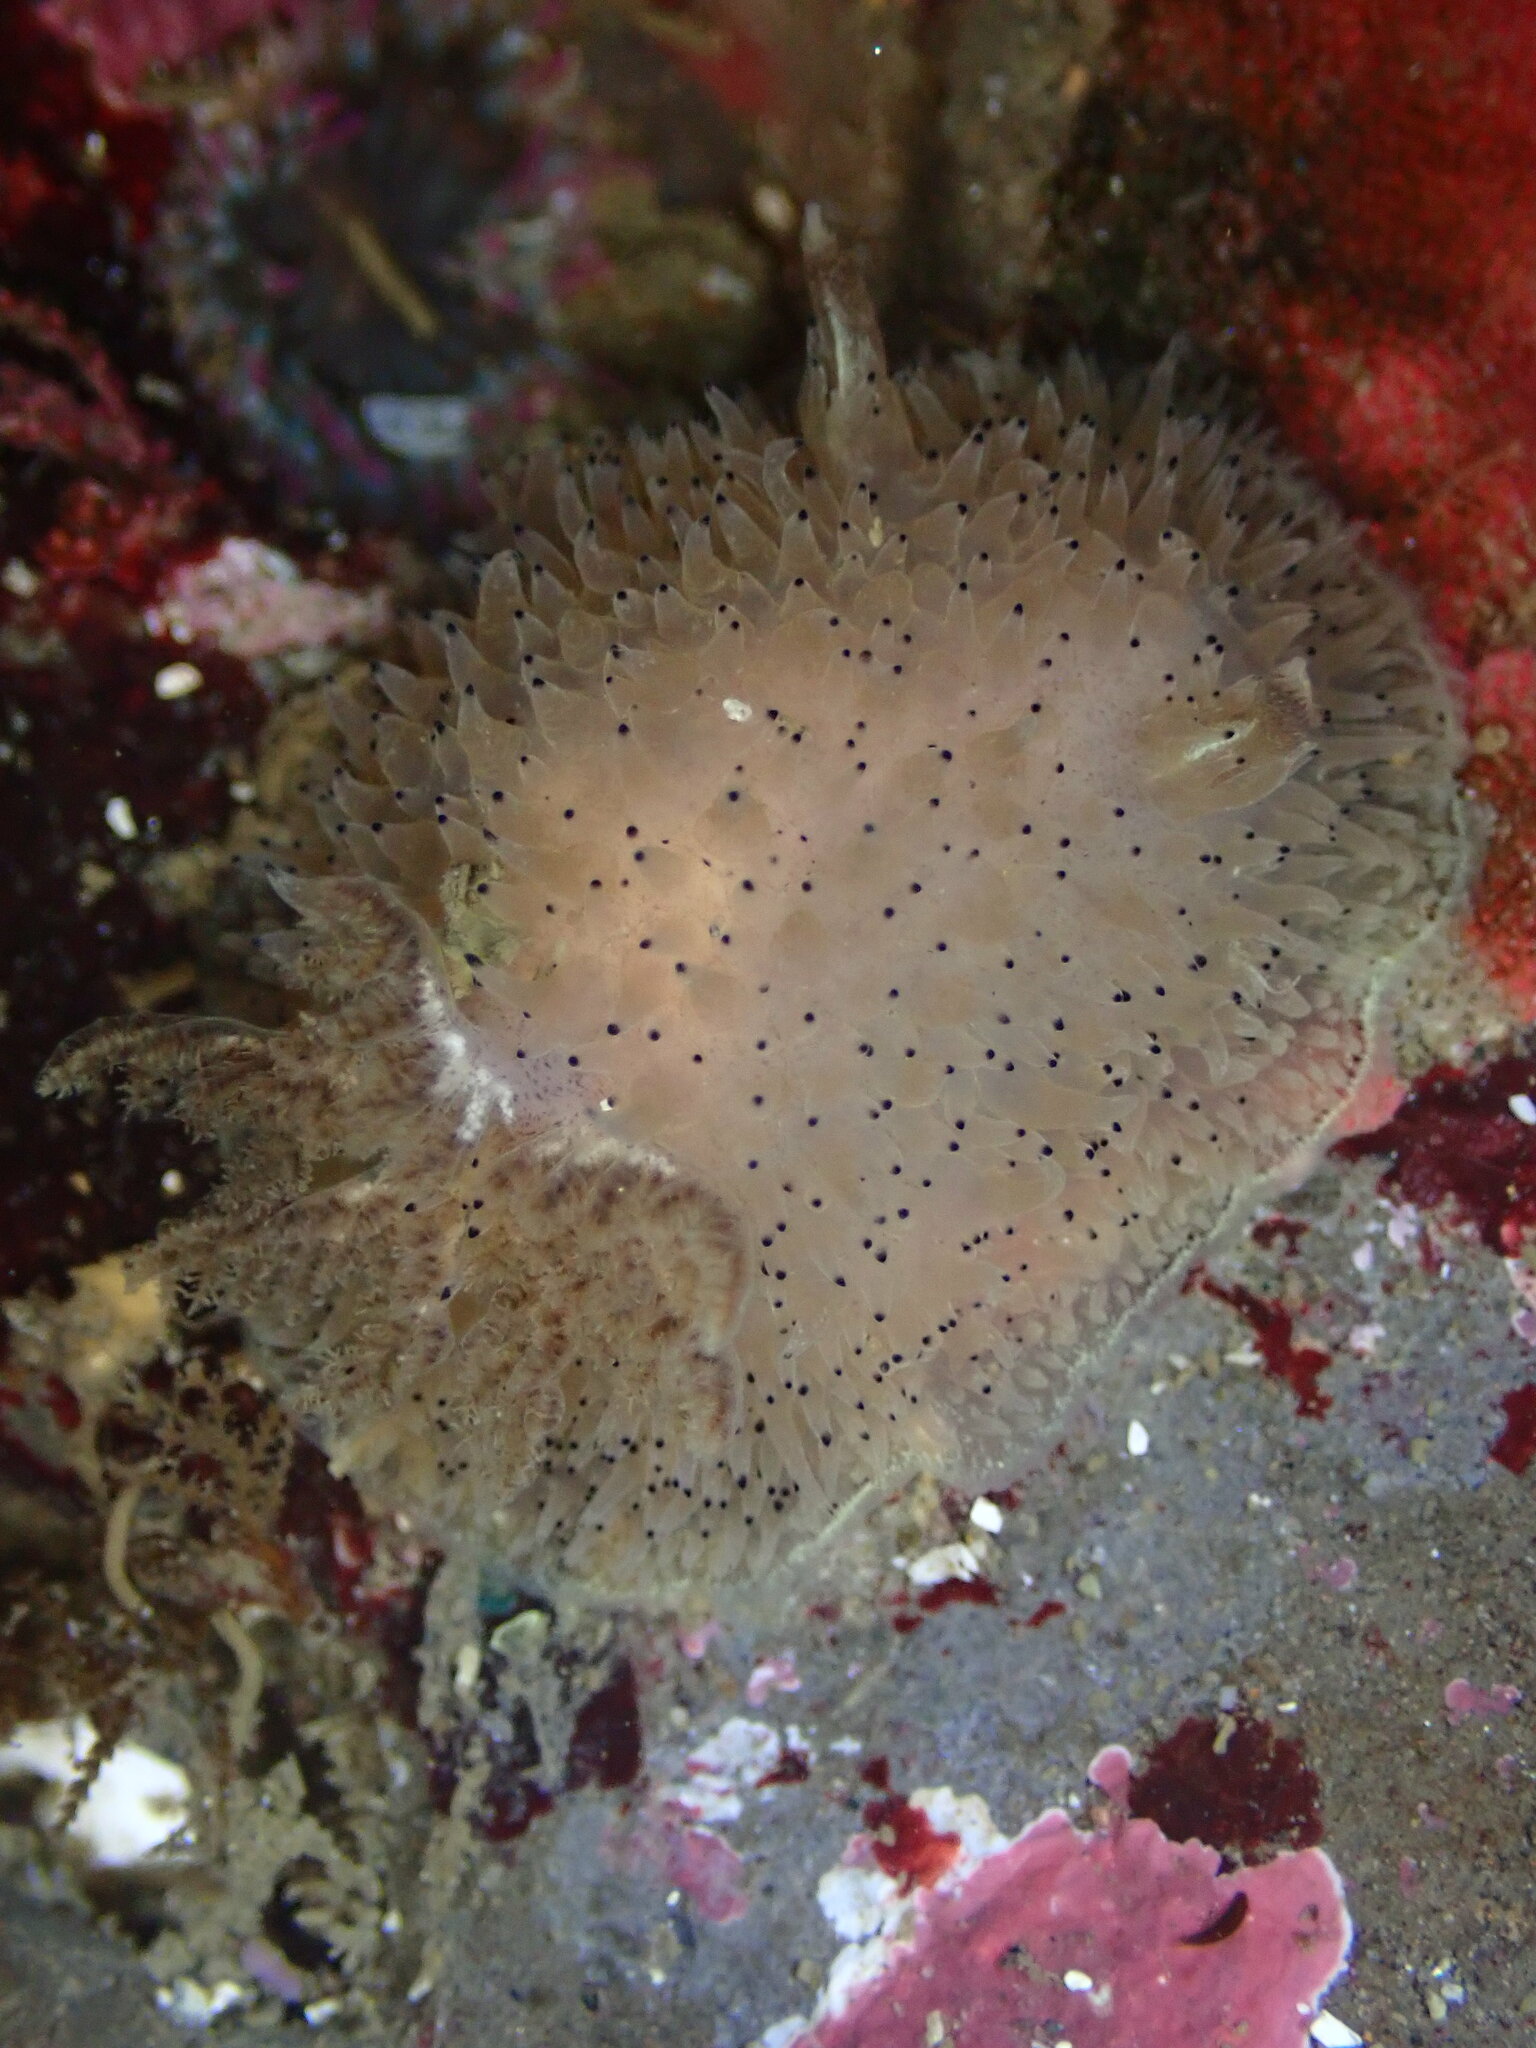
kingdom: Animalia
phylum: Mollusca
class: Gastropoda
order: Nudibranchia
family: Onchidorididae
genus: Acanthodoris
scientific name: Acanthodoris rhodoceras
